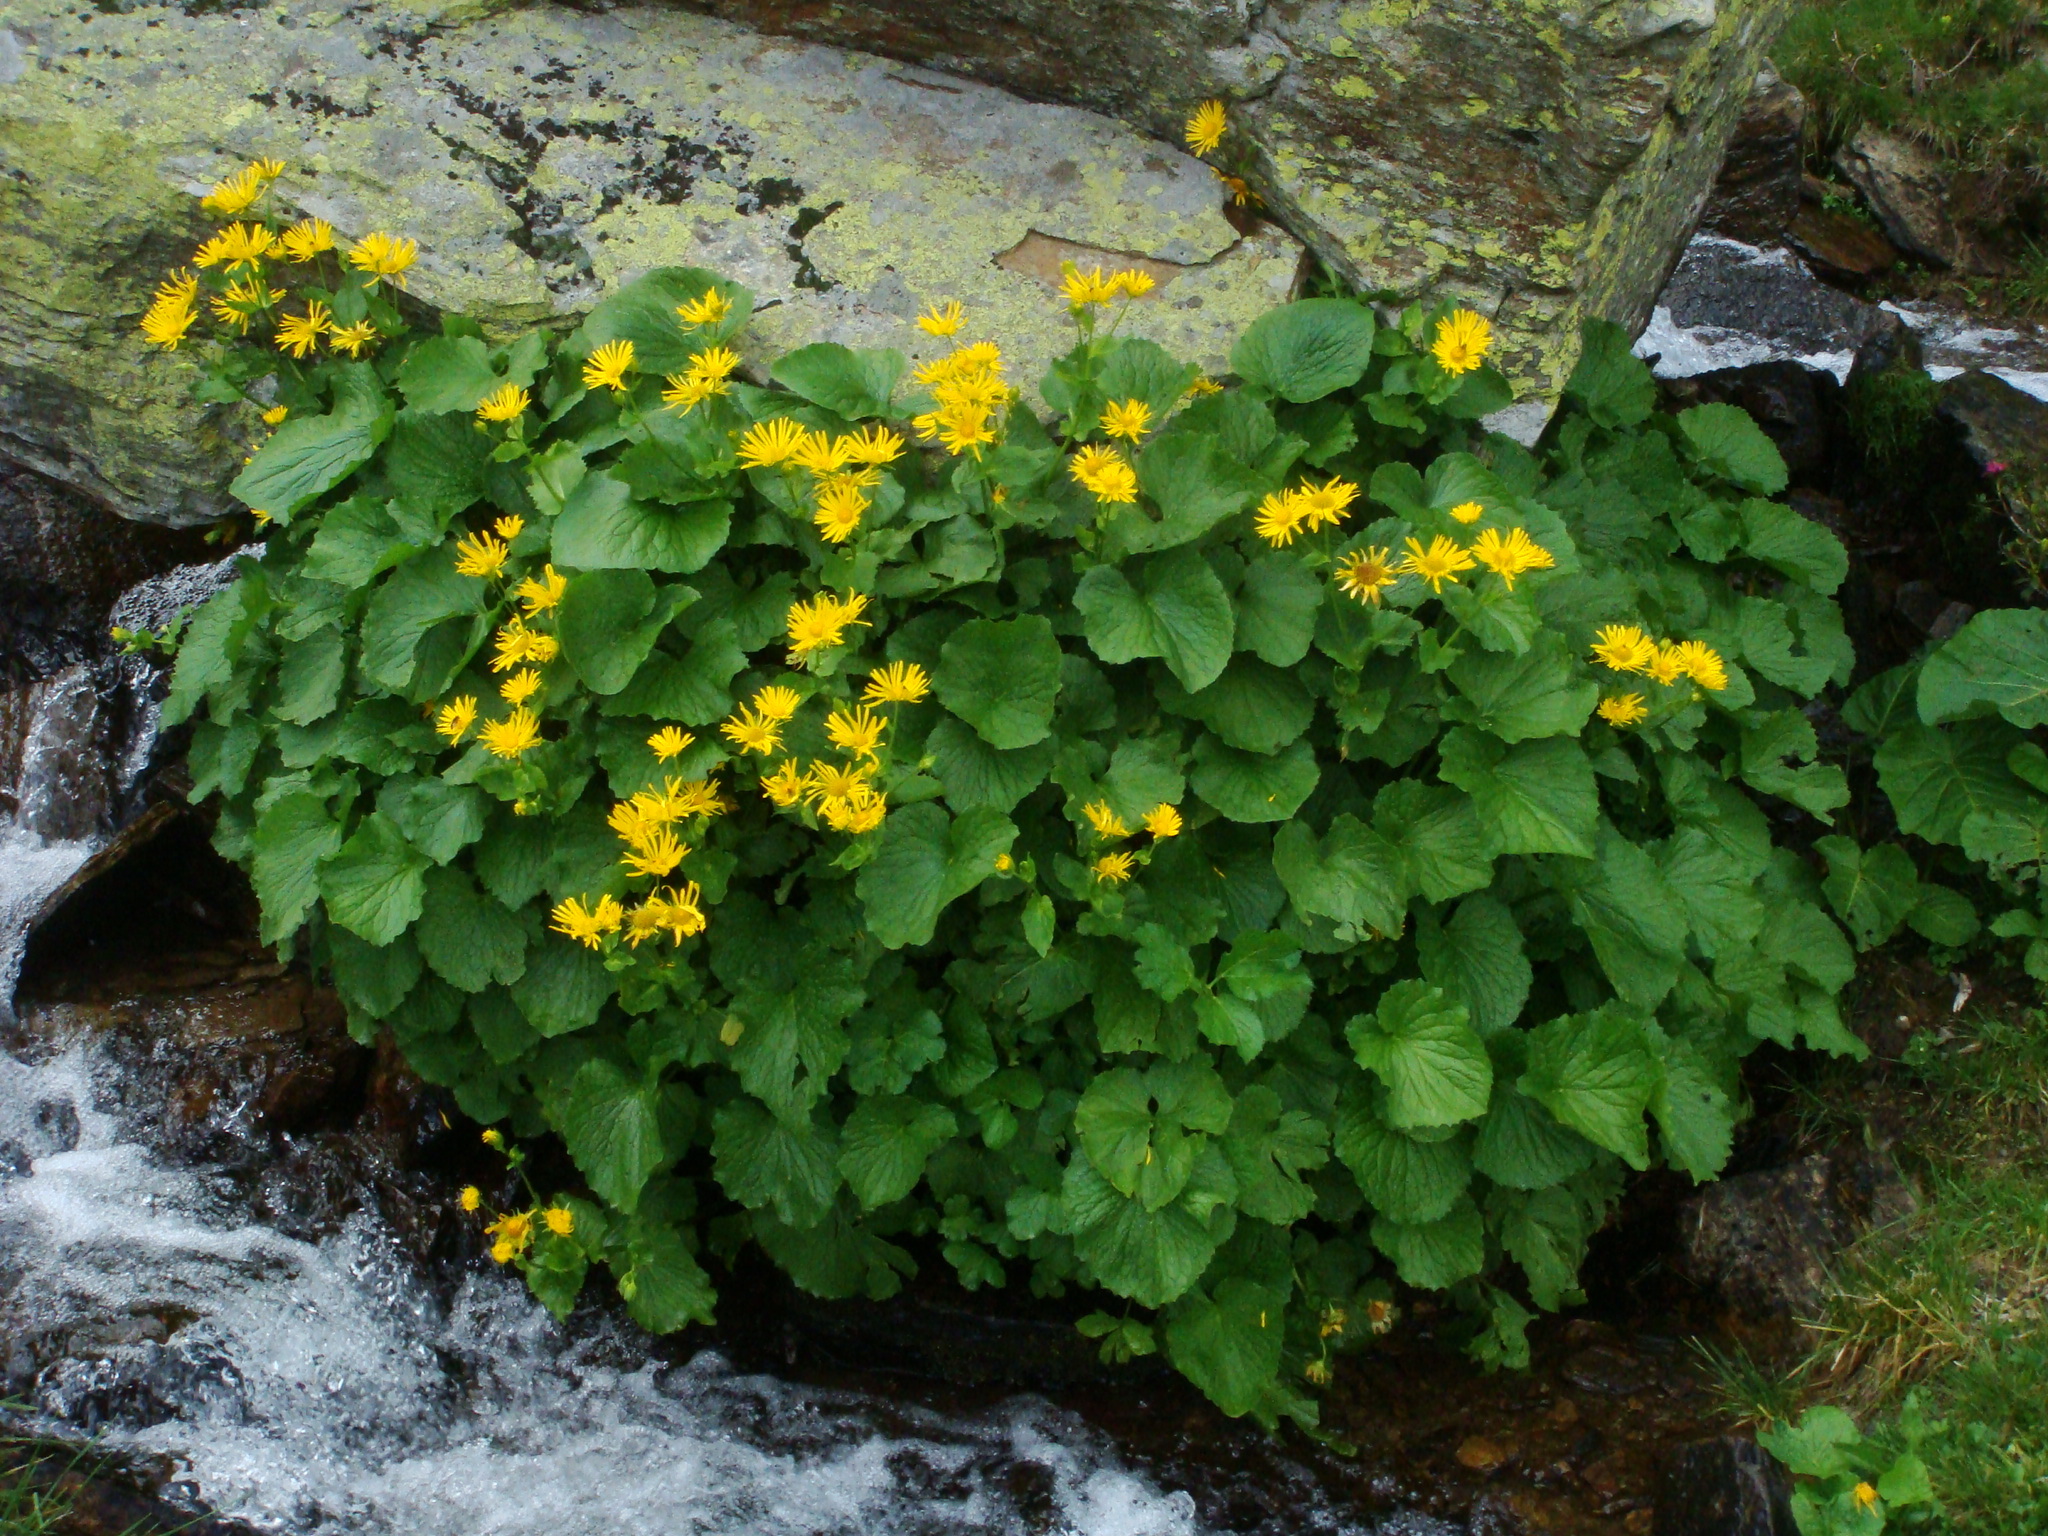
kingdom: Plantae
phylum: Tracheophyta
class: Magnoliopsida
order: Asterales
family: Asteraceae
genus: Doronicum
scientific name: Doronicum cataractarum
